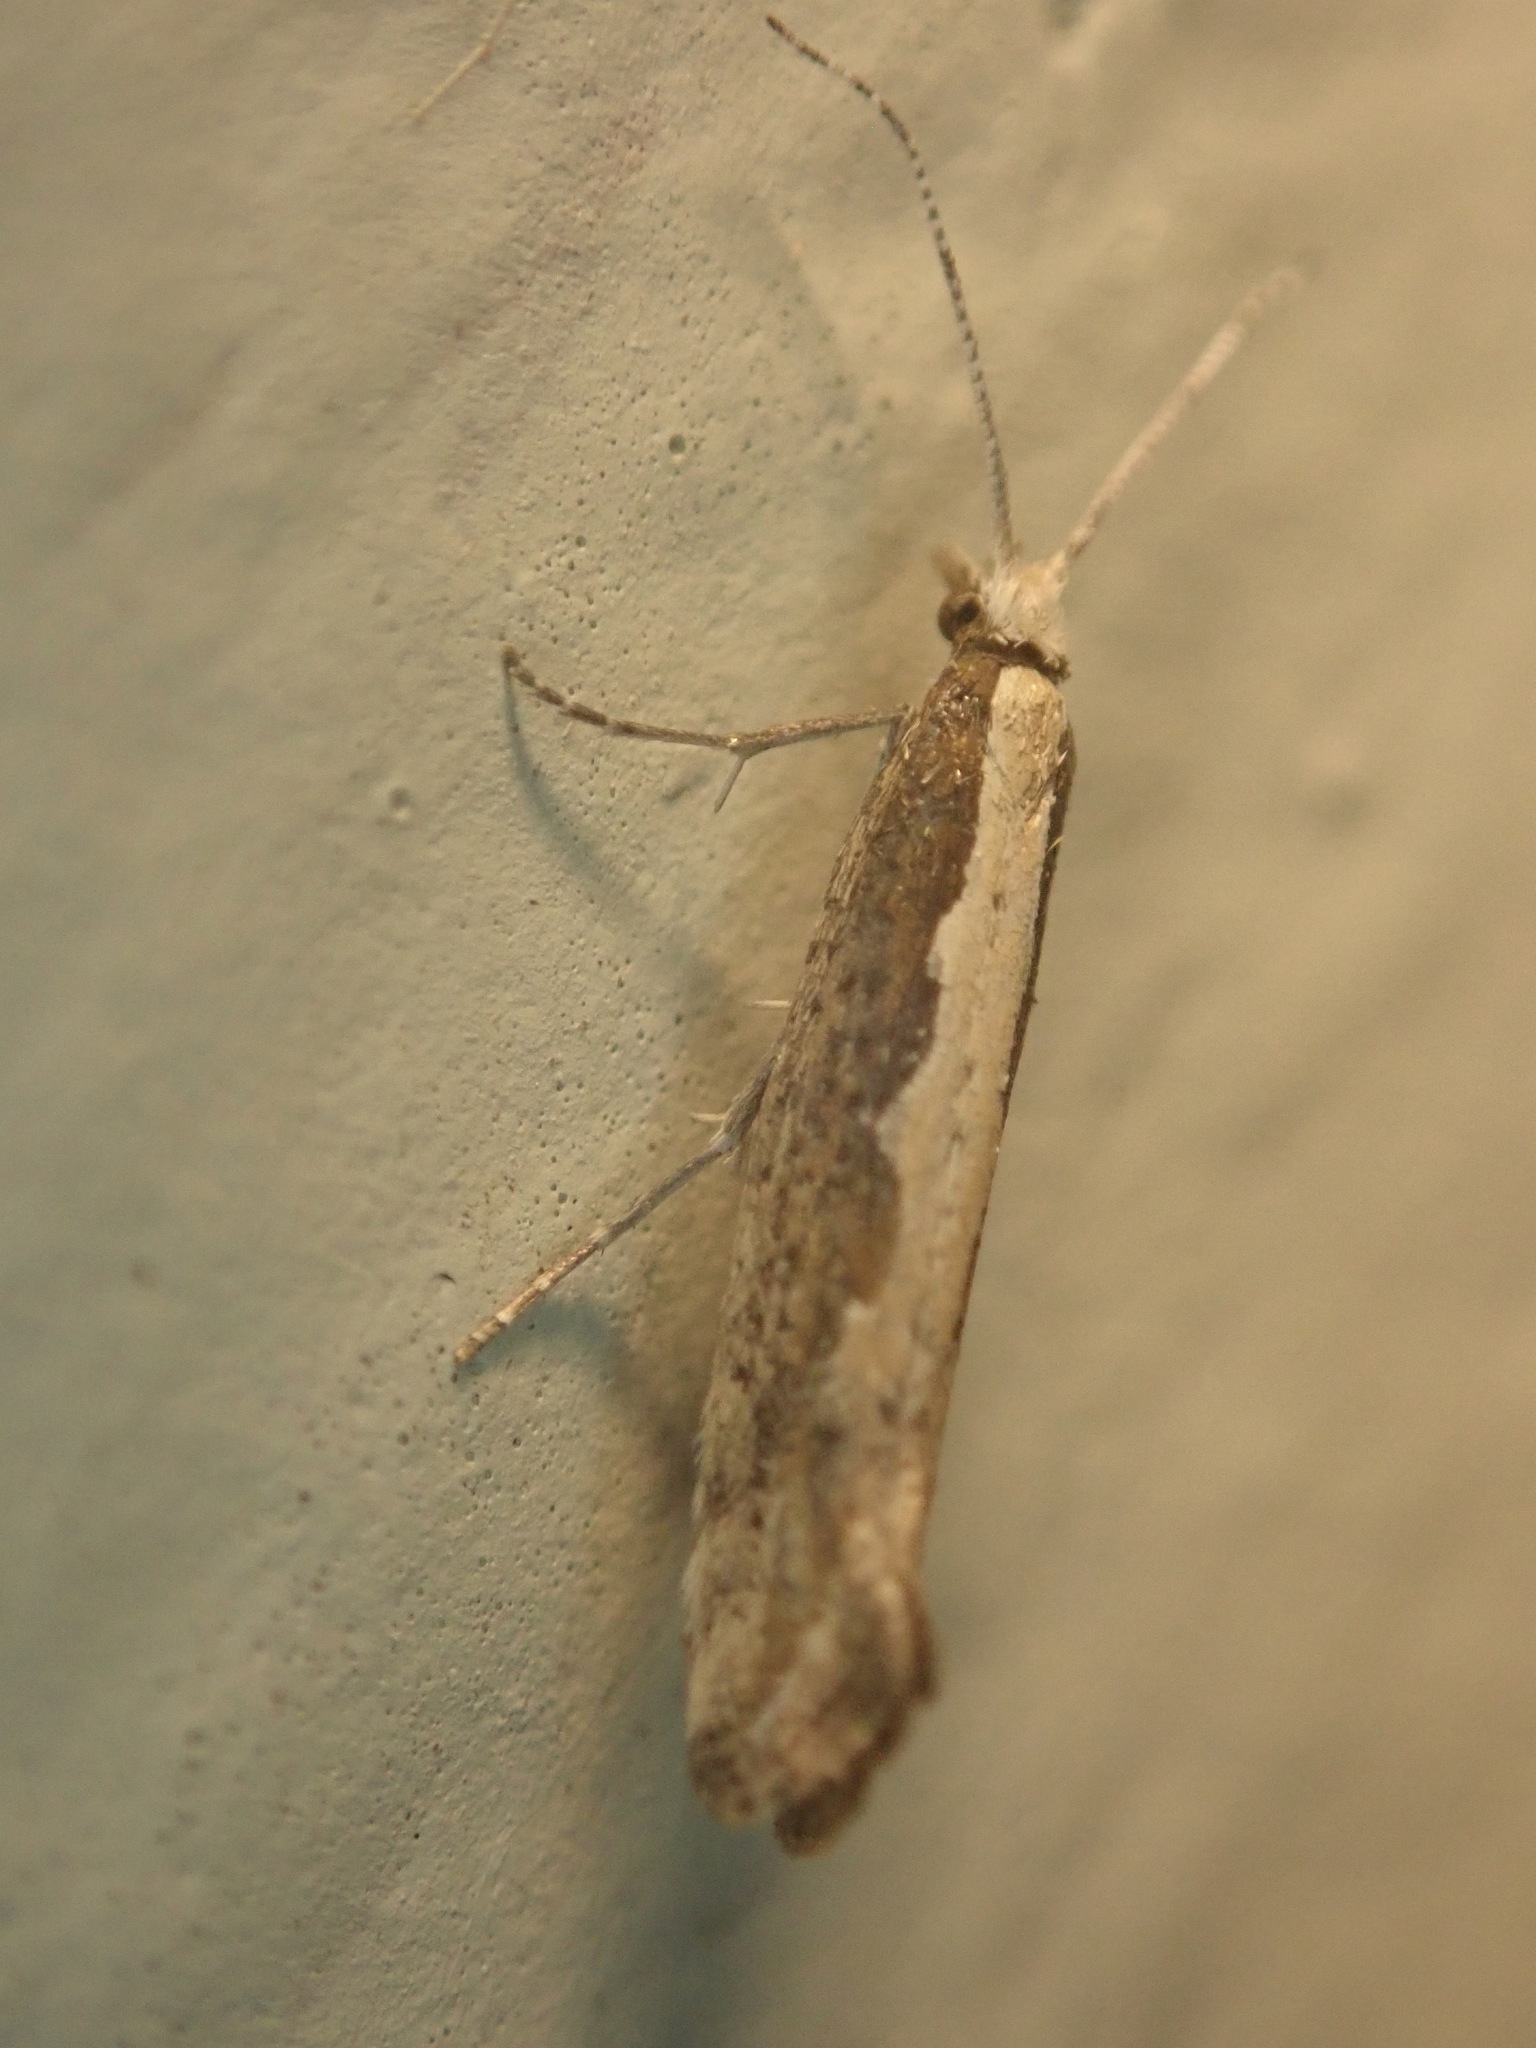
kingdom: Animalia
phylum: Arthropoda
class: Insecta
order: Lepidoptera
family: Plutellidae
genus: Plutella
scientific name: Plutella xylostella
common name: Diamond-back moth
